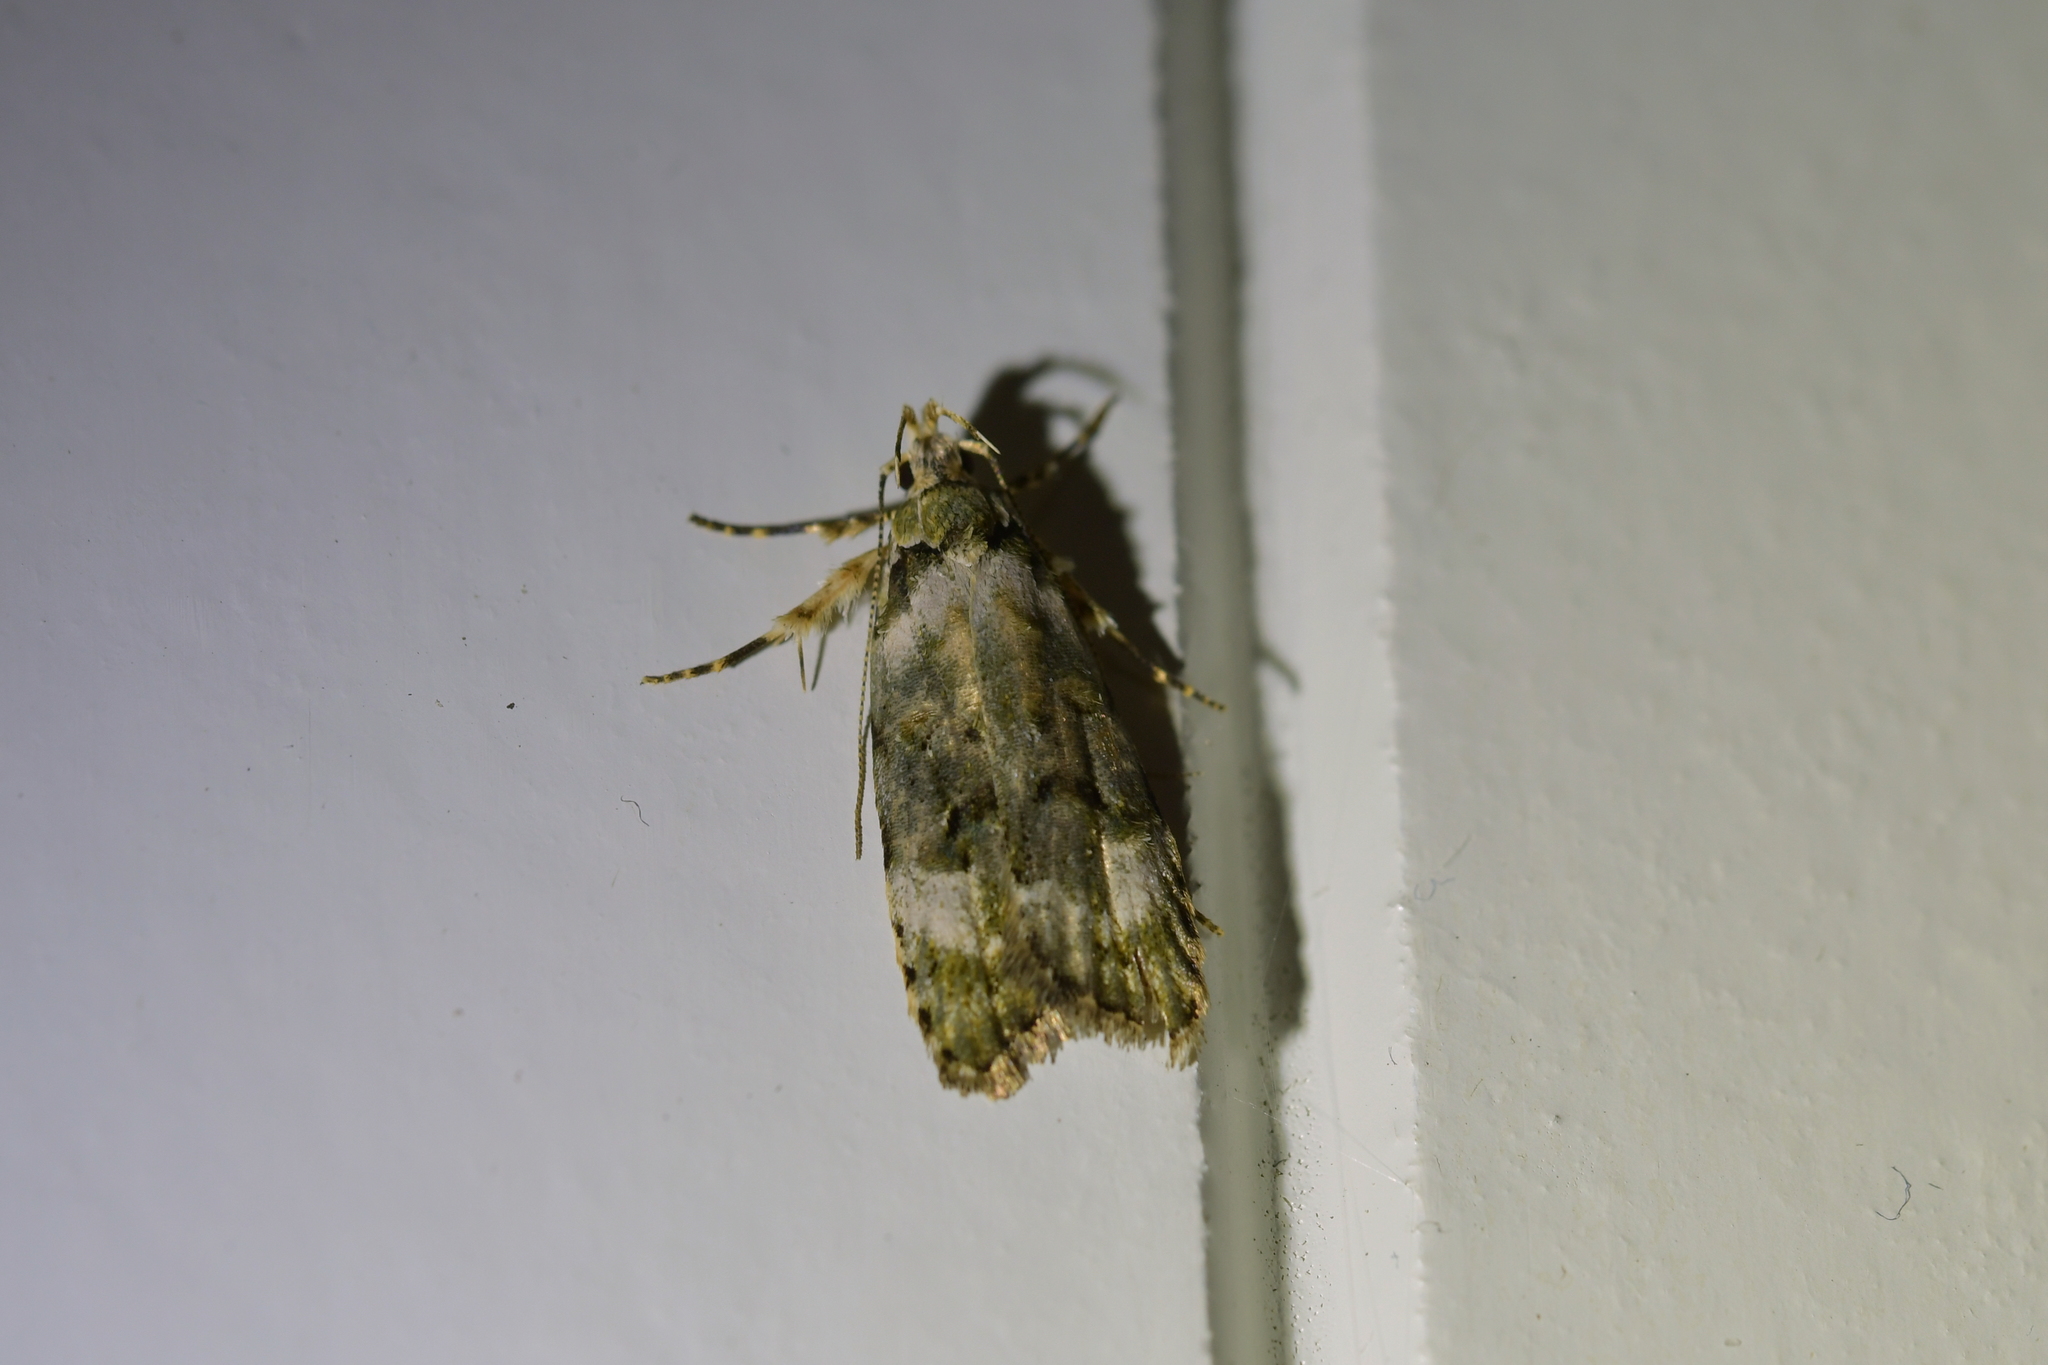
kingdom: Animalia
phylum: Arthropoda
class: Insecta
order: Lepidoptera
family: Oecophoridae
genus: Izatha
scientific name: Izatha prasophyta
